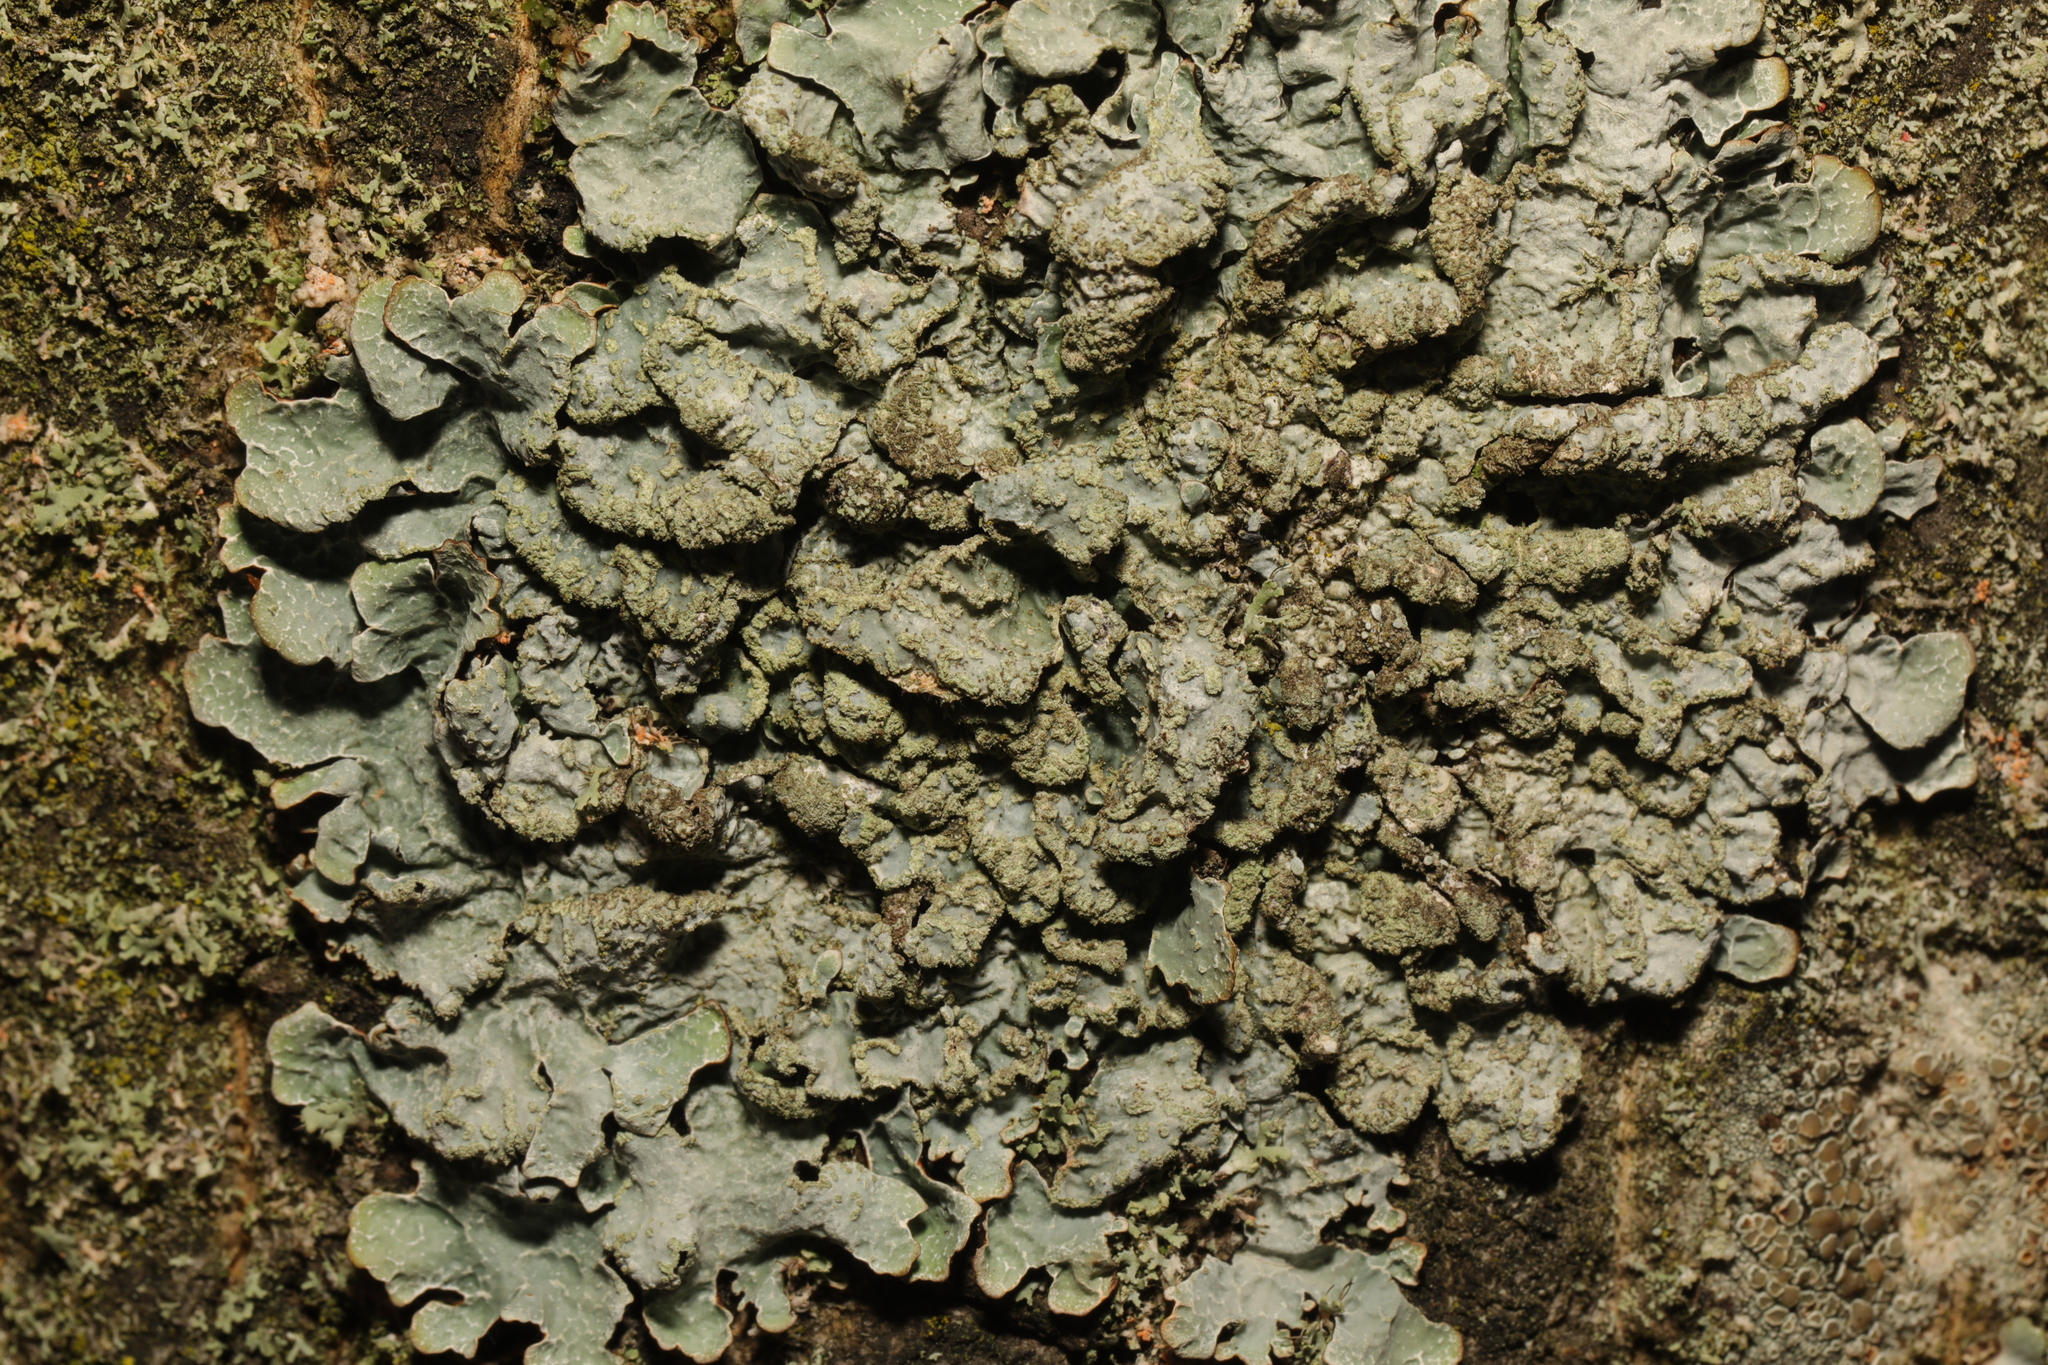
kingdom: Fungi
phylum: Ascomycota
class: Lecanoromycetes
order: Lecanorales
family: Parmeliaceae
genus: Parmelia
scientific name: Parmelia sulcata
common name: Netted shield lichen
